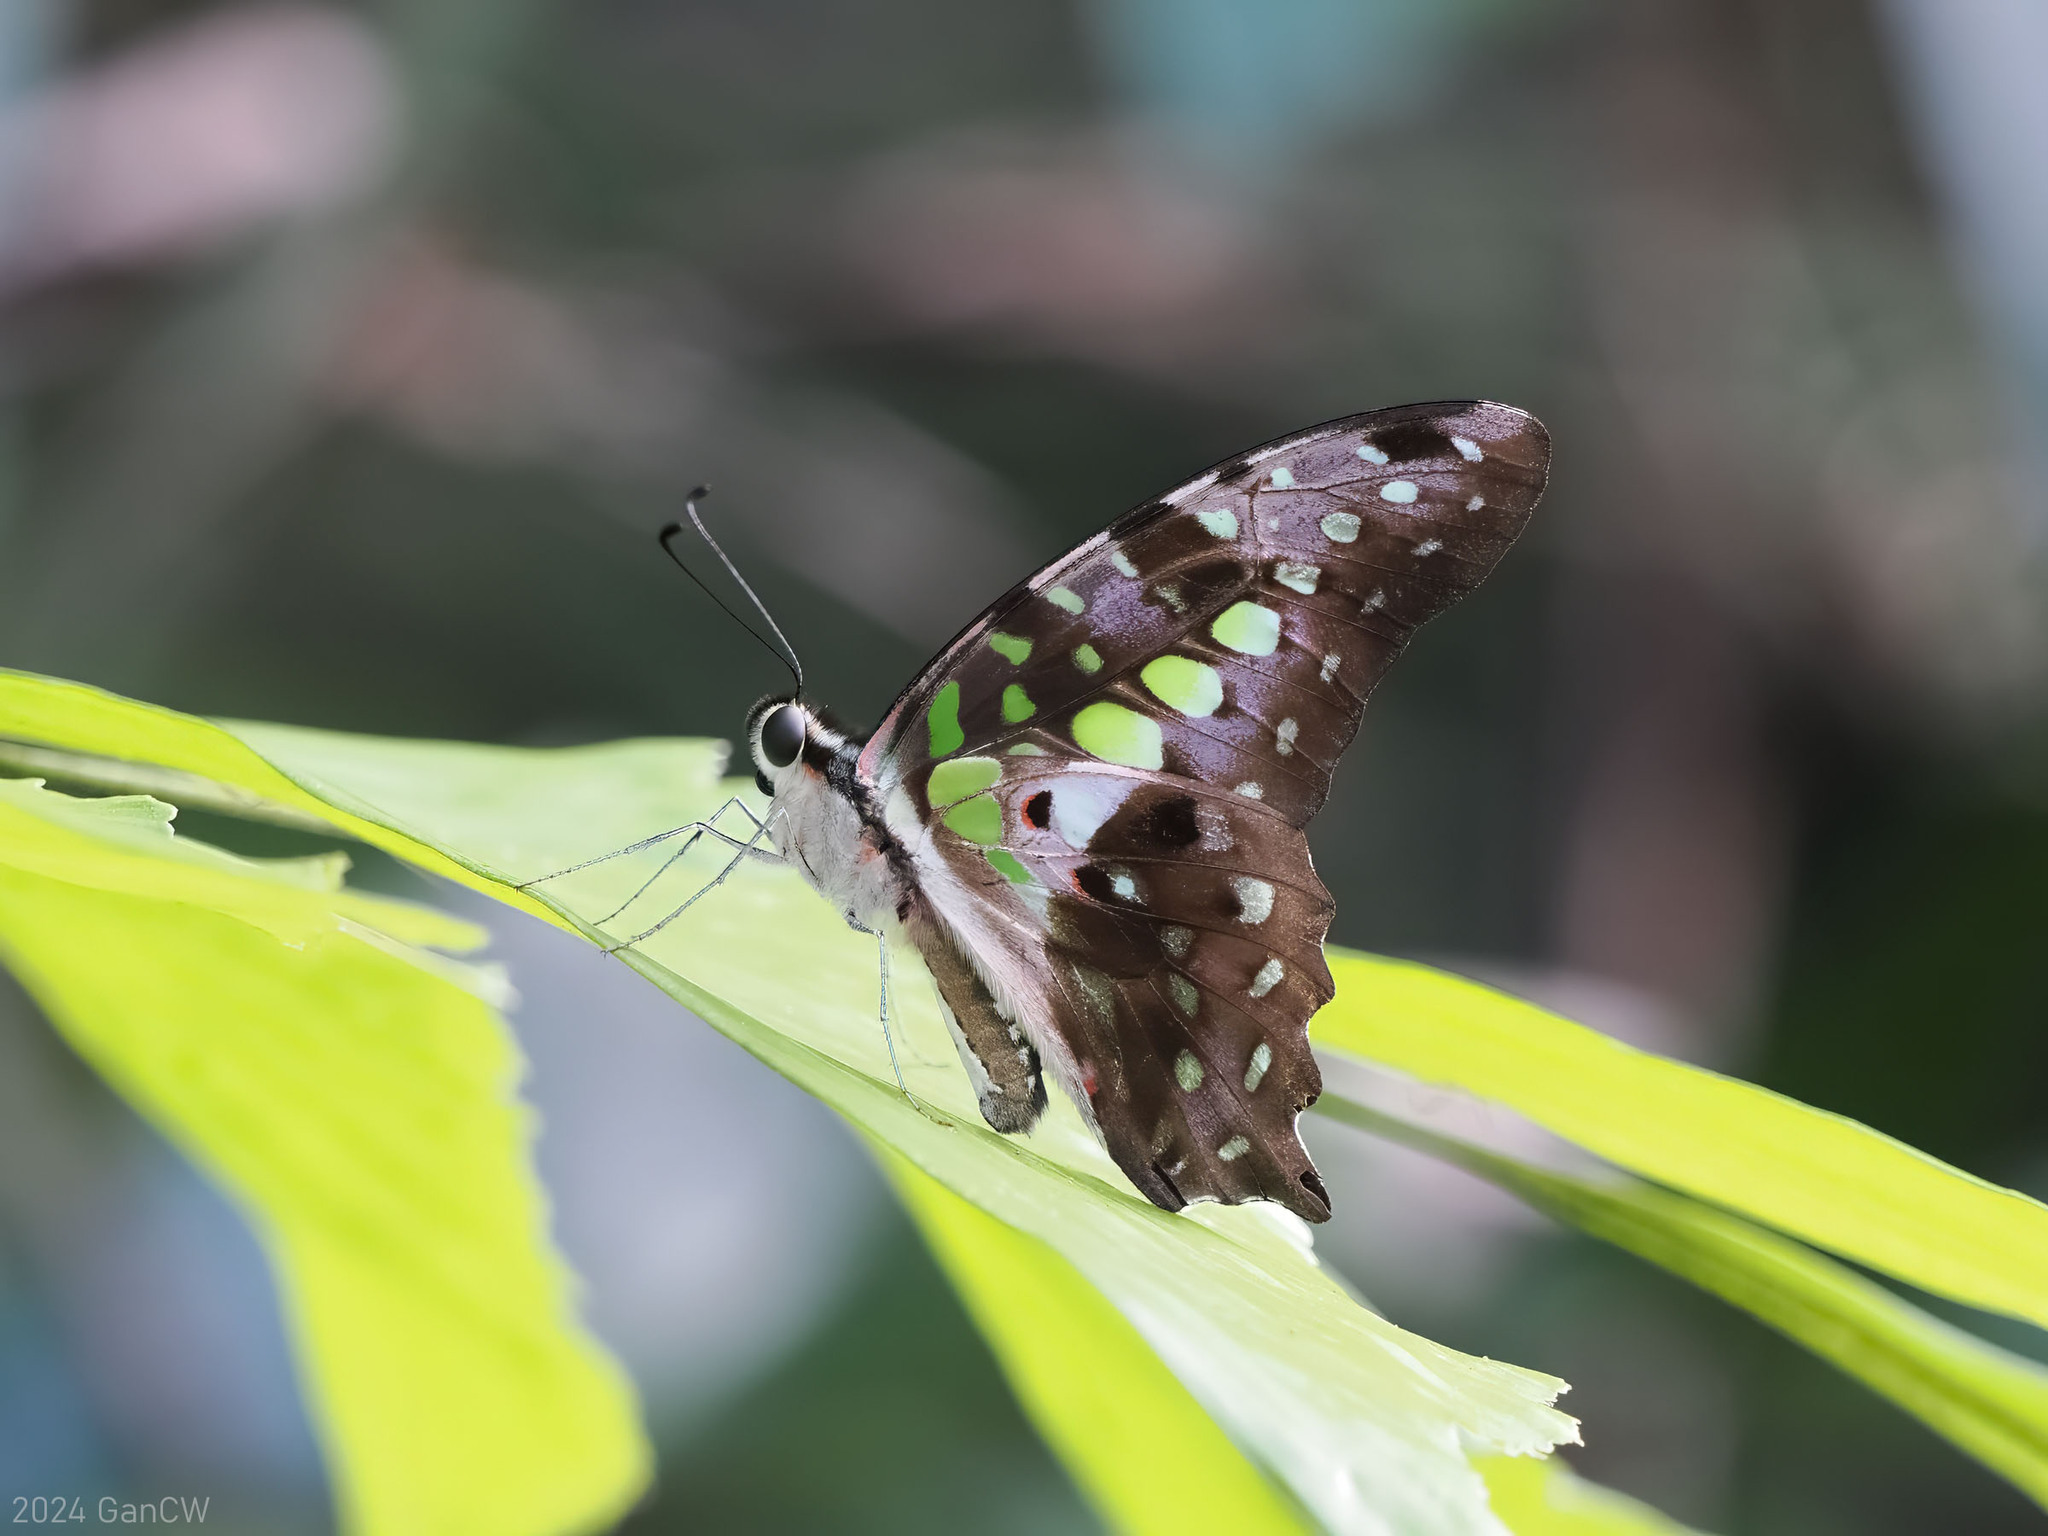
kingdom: Animalia
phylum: Arthropoda
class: Insecta
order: Lepidoptera
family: Papilionidae
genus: Graphium
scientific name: Graphium agamemnon
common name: Tailed jay
